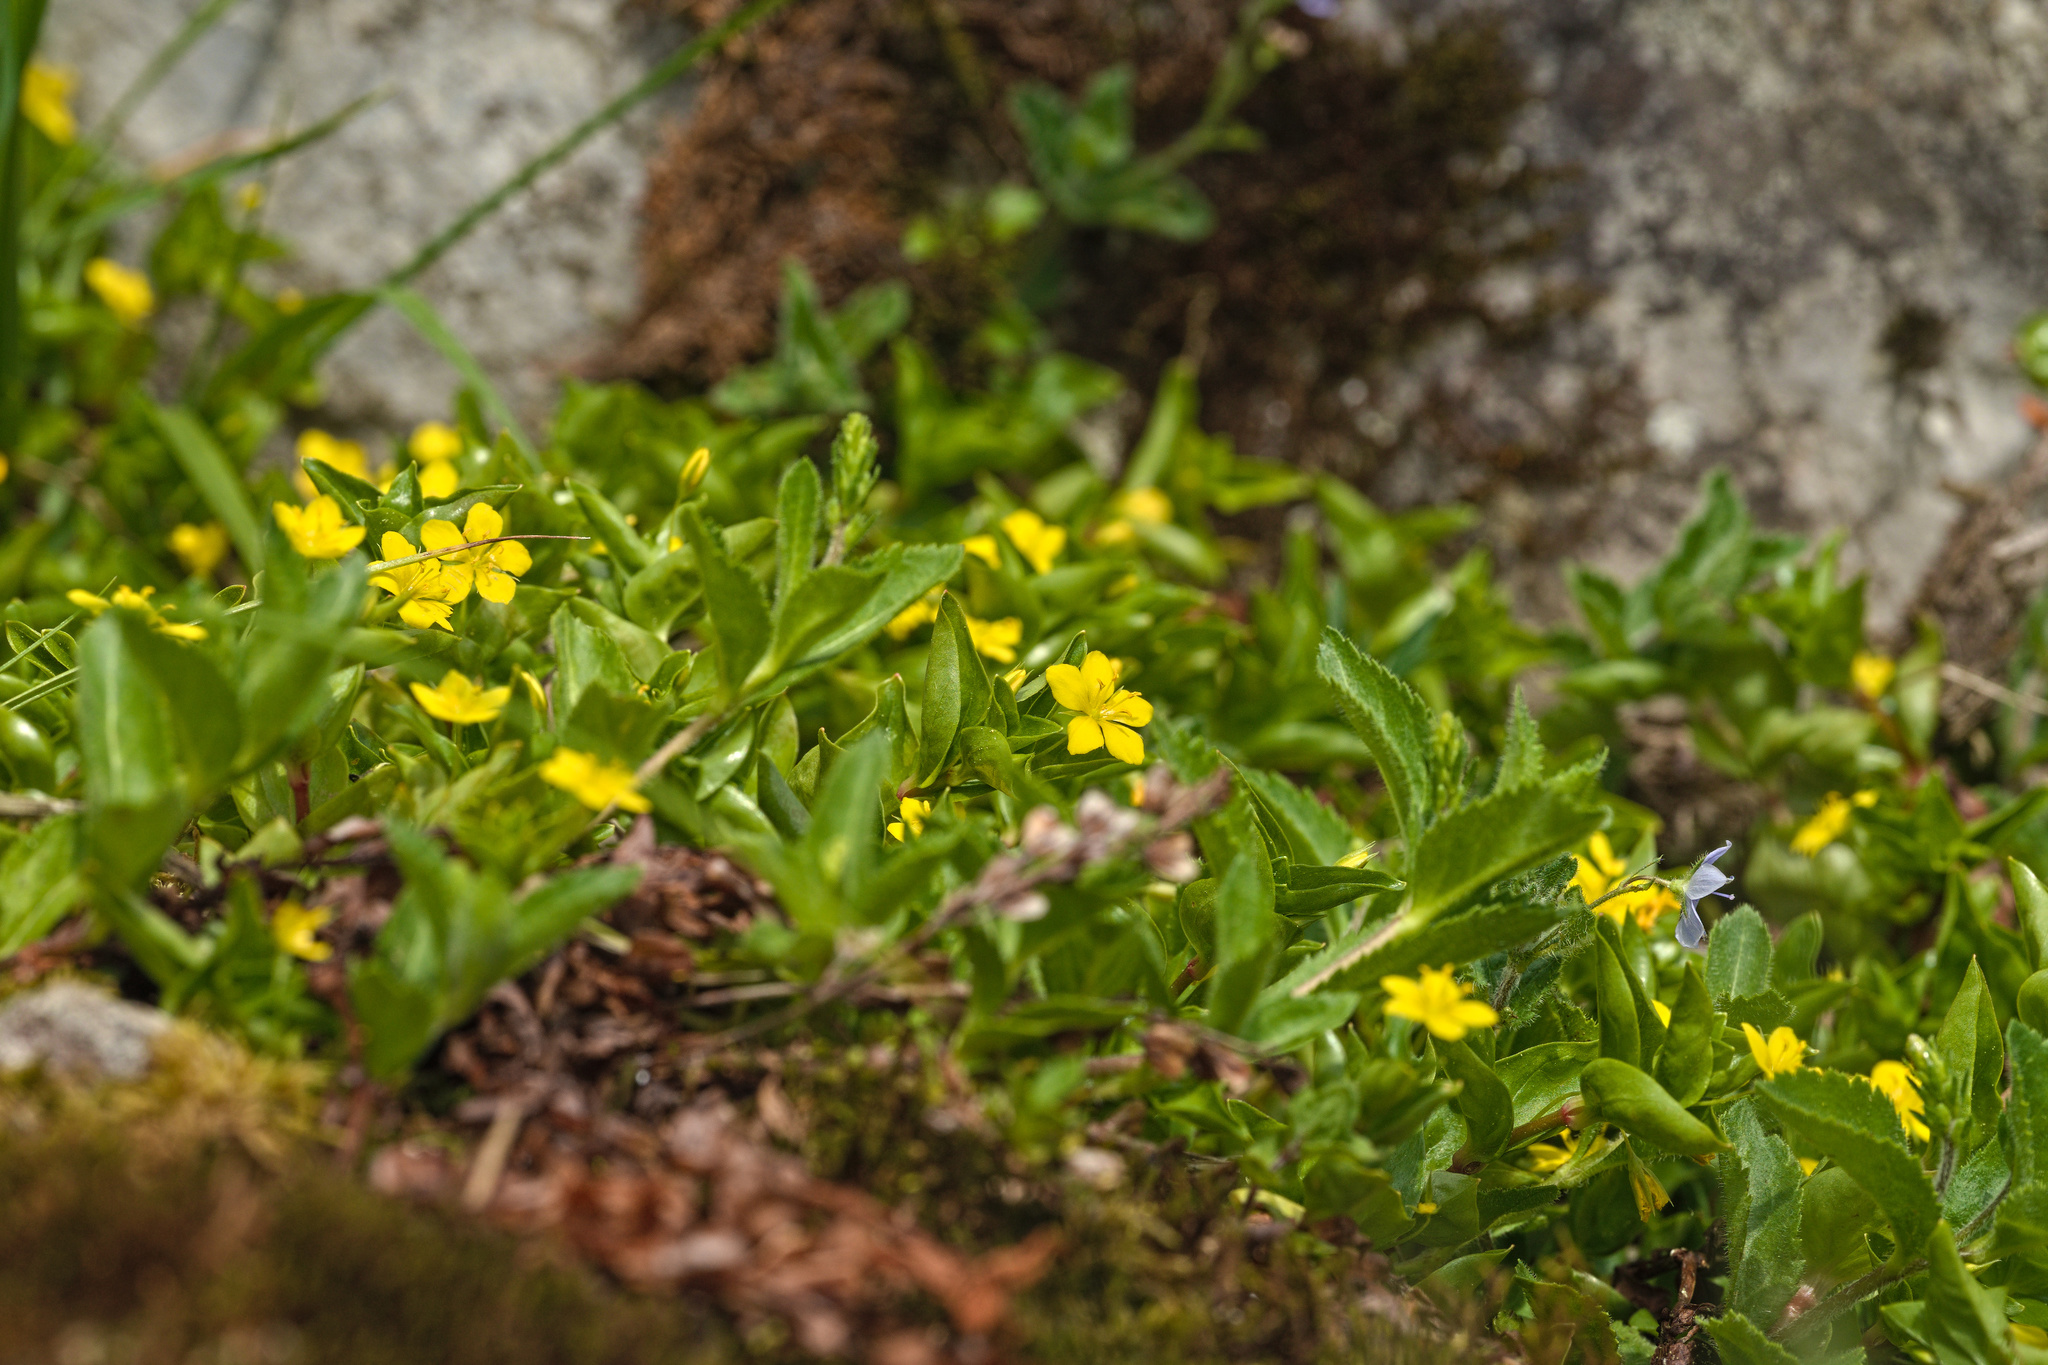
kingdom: Plantae
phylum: Tracheophyta
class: Magnoliopsida
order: Ericales
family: Primulaceae
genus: Lysimachia
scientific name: Lysimachia nemorum
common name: Yellow pimpernel
